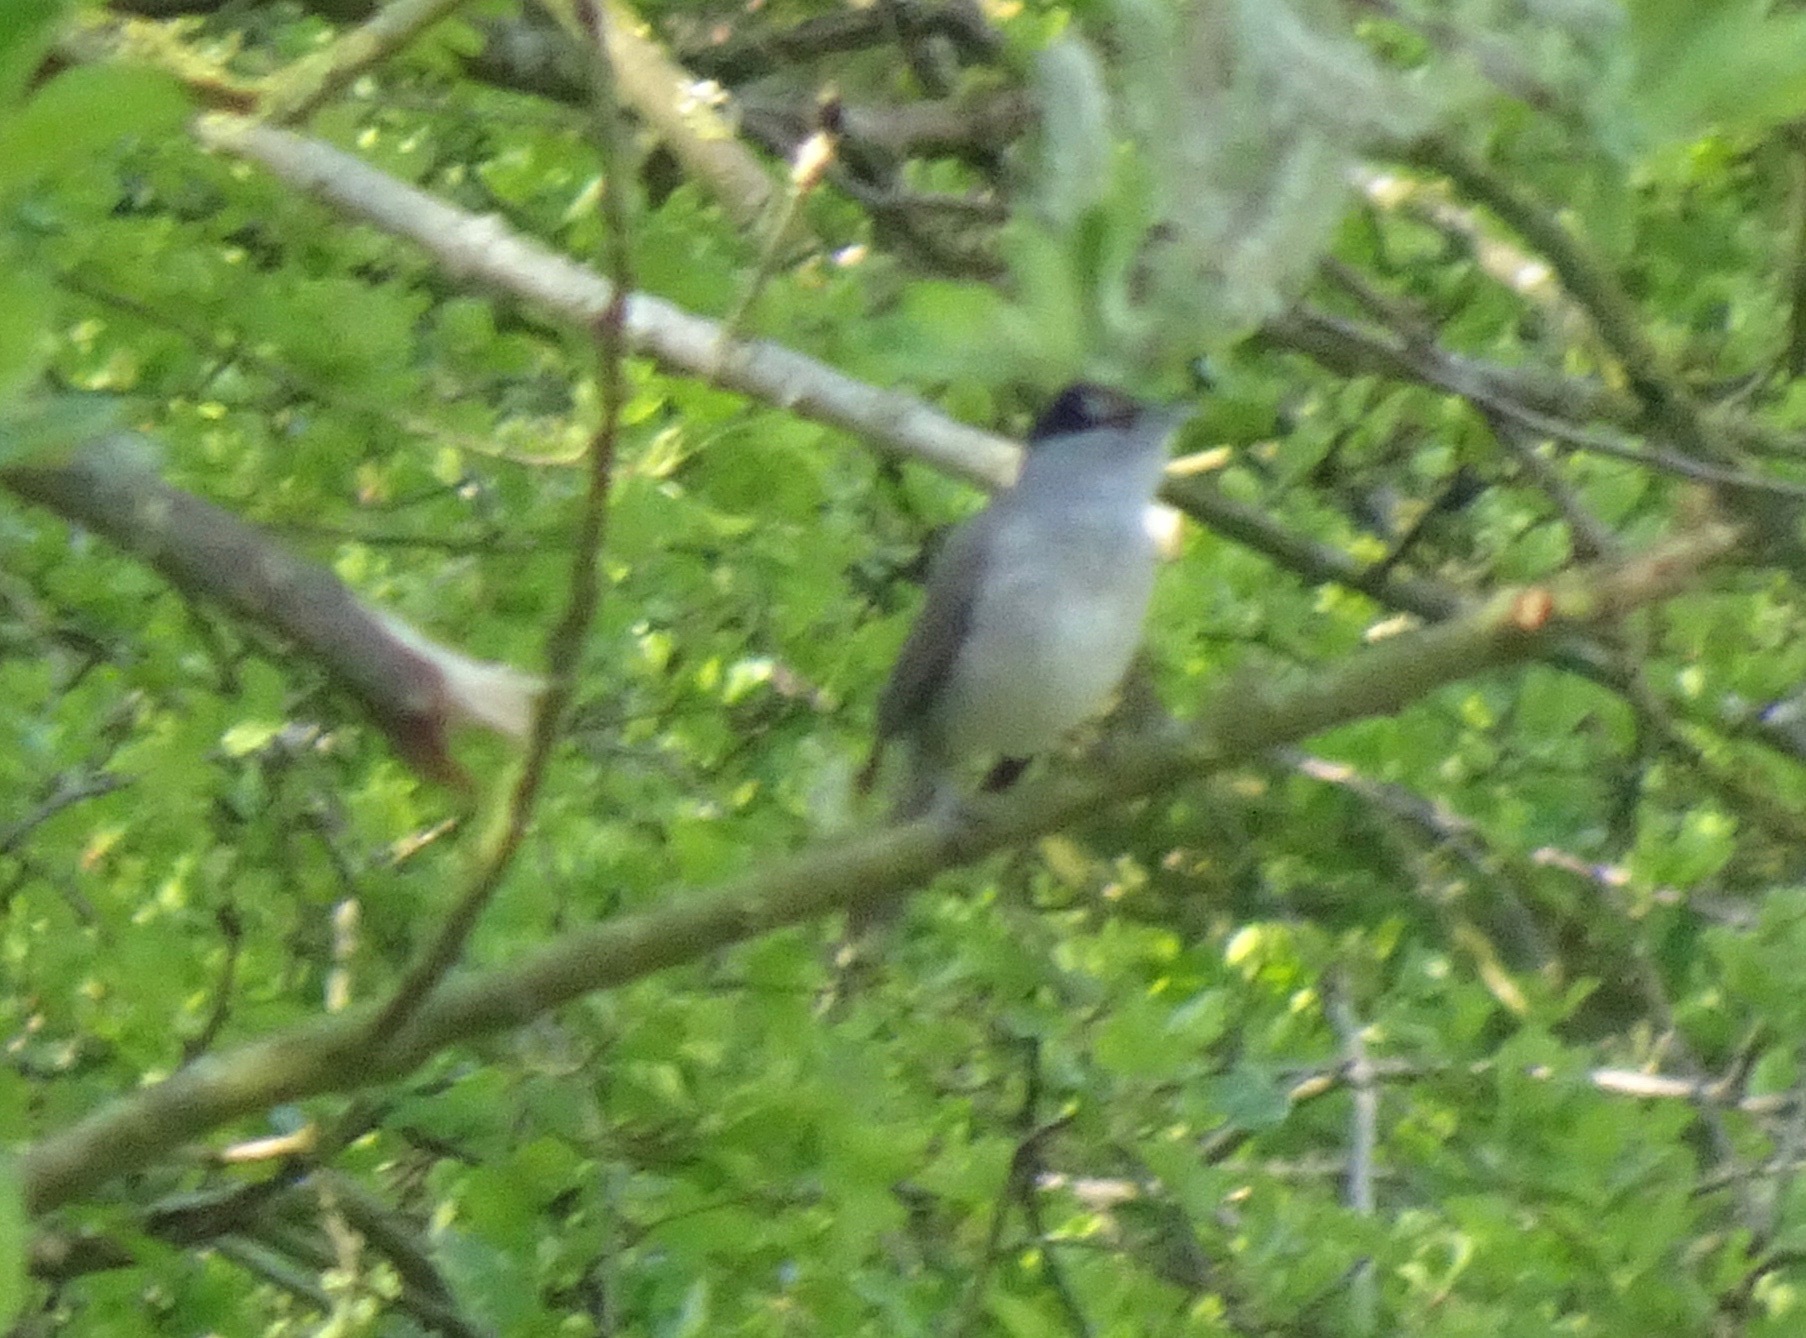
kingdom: Animalia
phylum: Chordata
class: Aves
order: Passeriformes
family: Sylviidae
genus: Sylvia
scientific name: Sylvia atricapilla
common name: Eurasian blackcap
